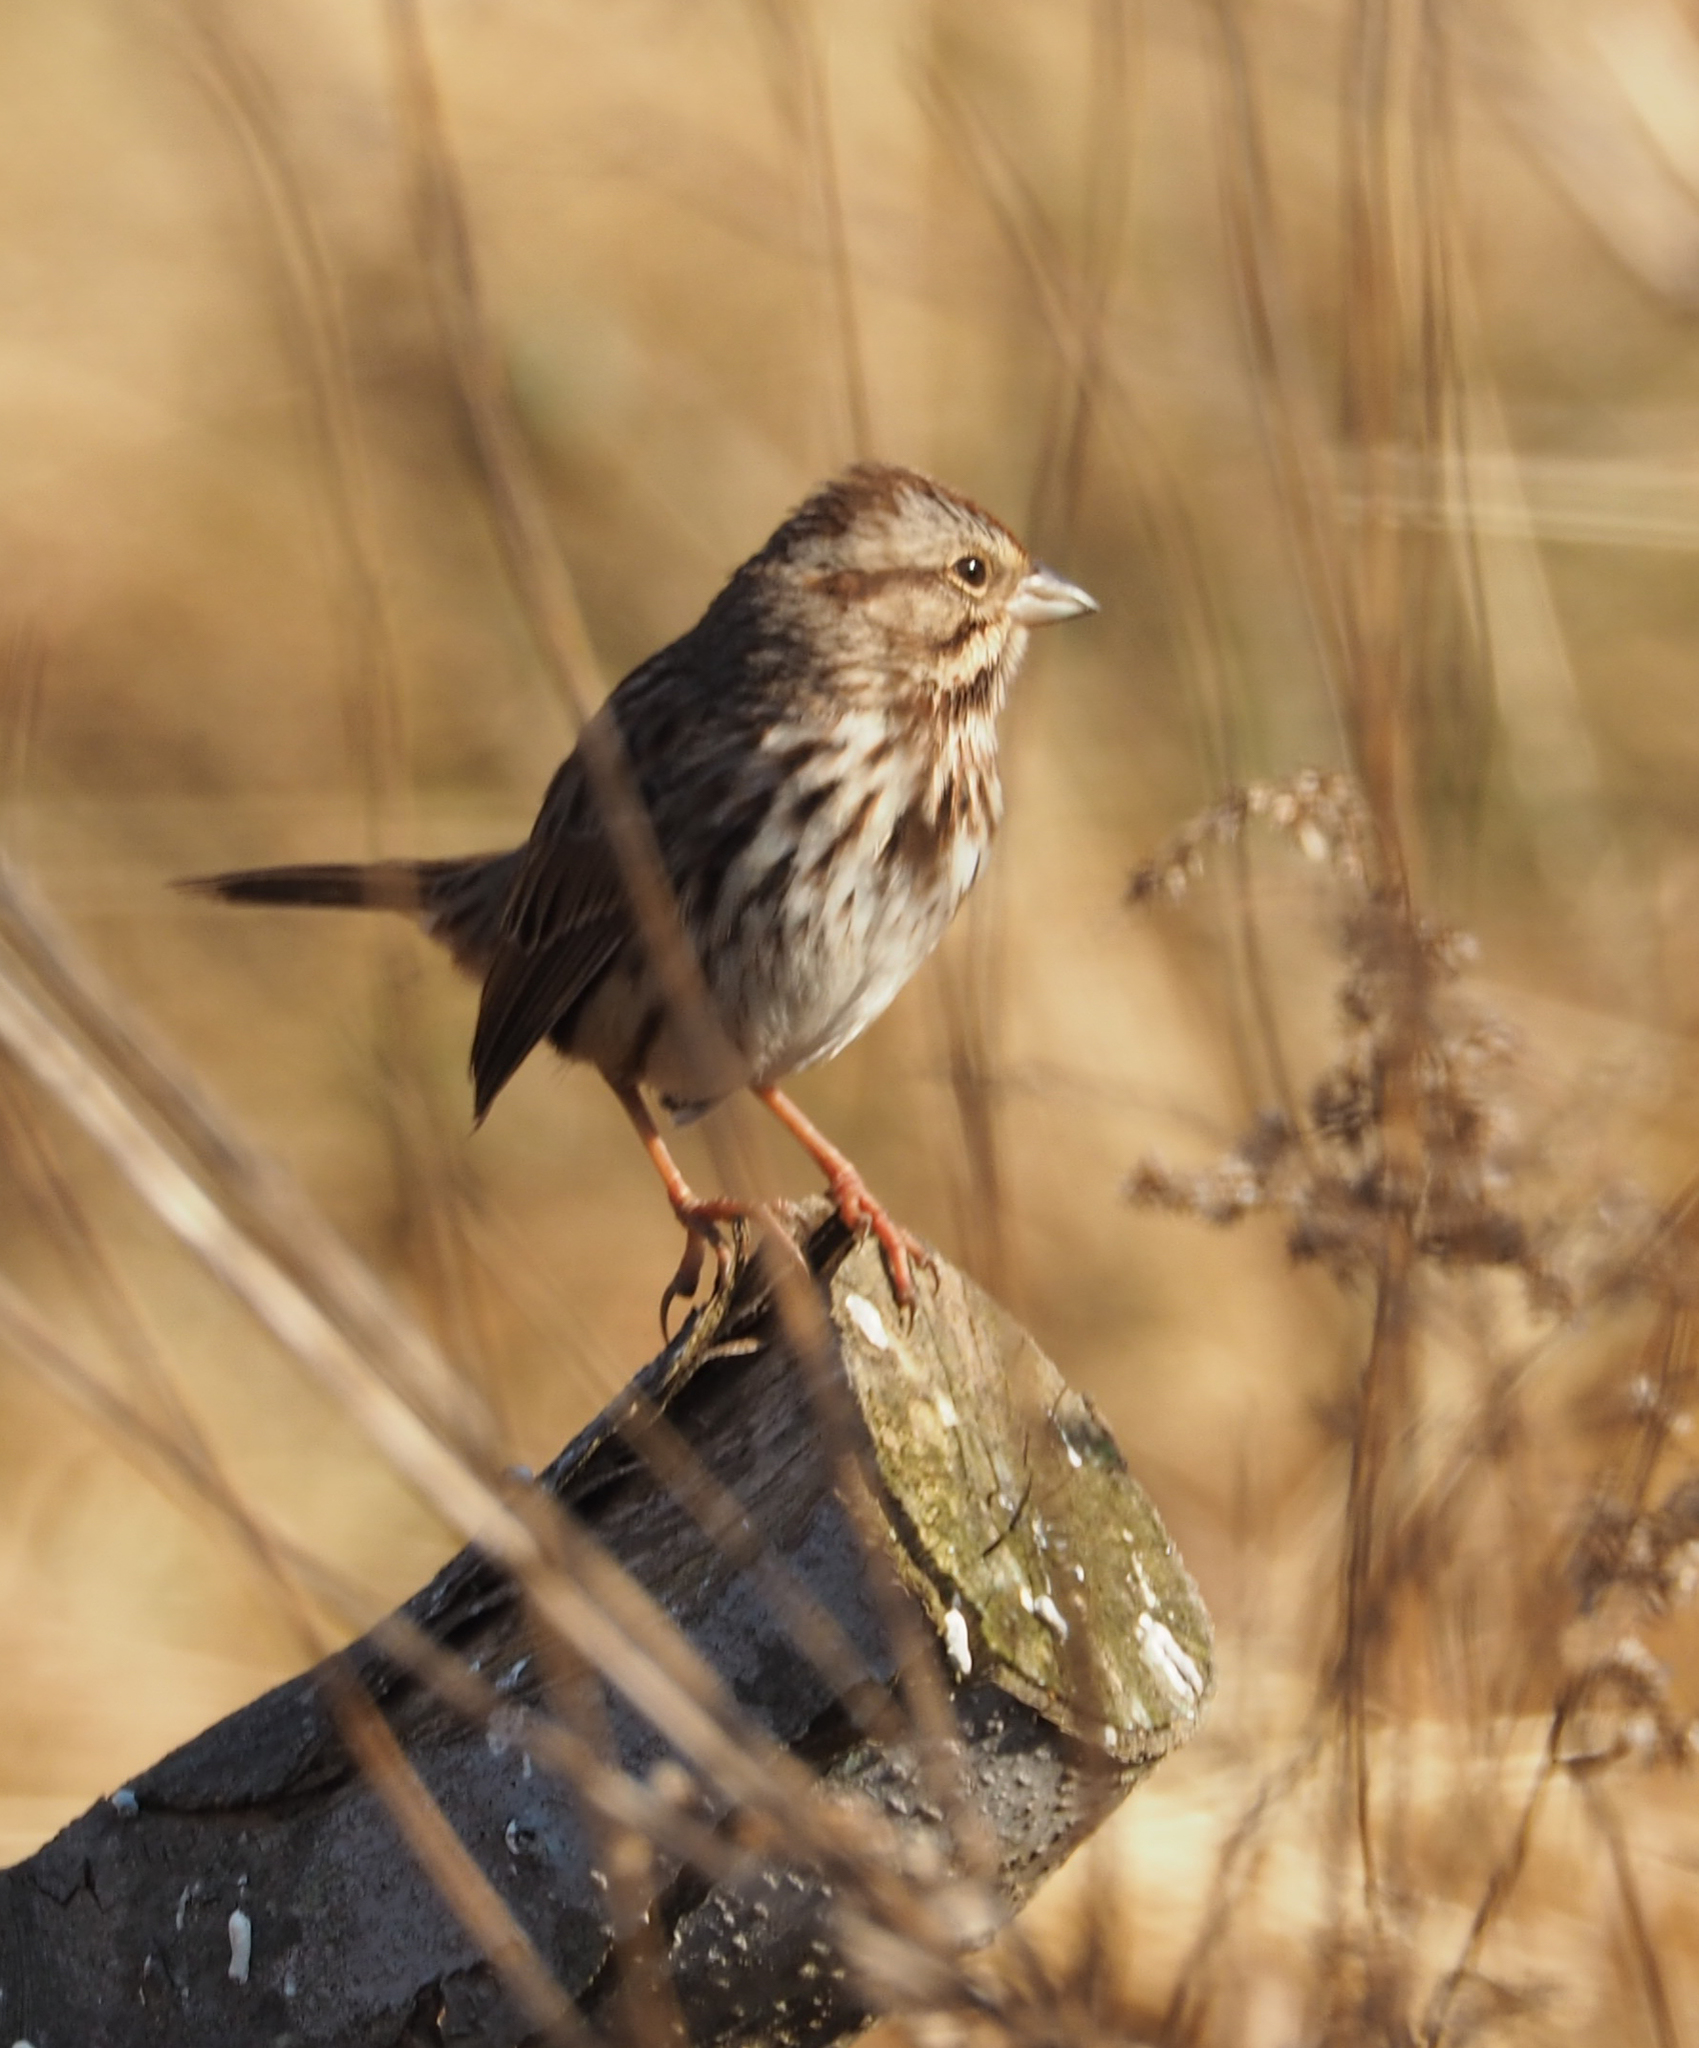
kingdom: Animalia
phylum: Chordata
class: Aves
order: Passeriformes
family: Passerellidae
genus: Melospiza
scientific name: Melospiza melodia
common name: Song sparrow
